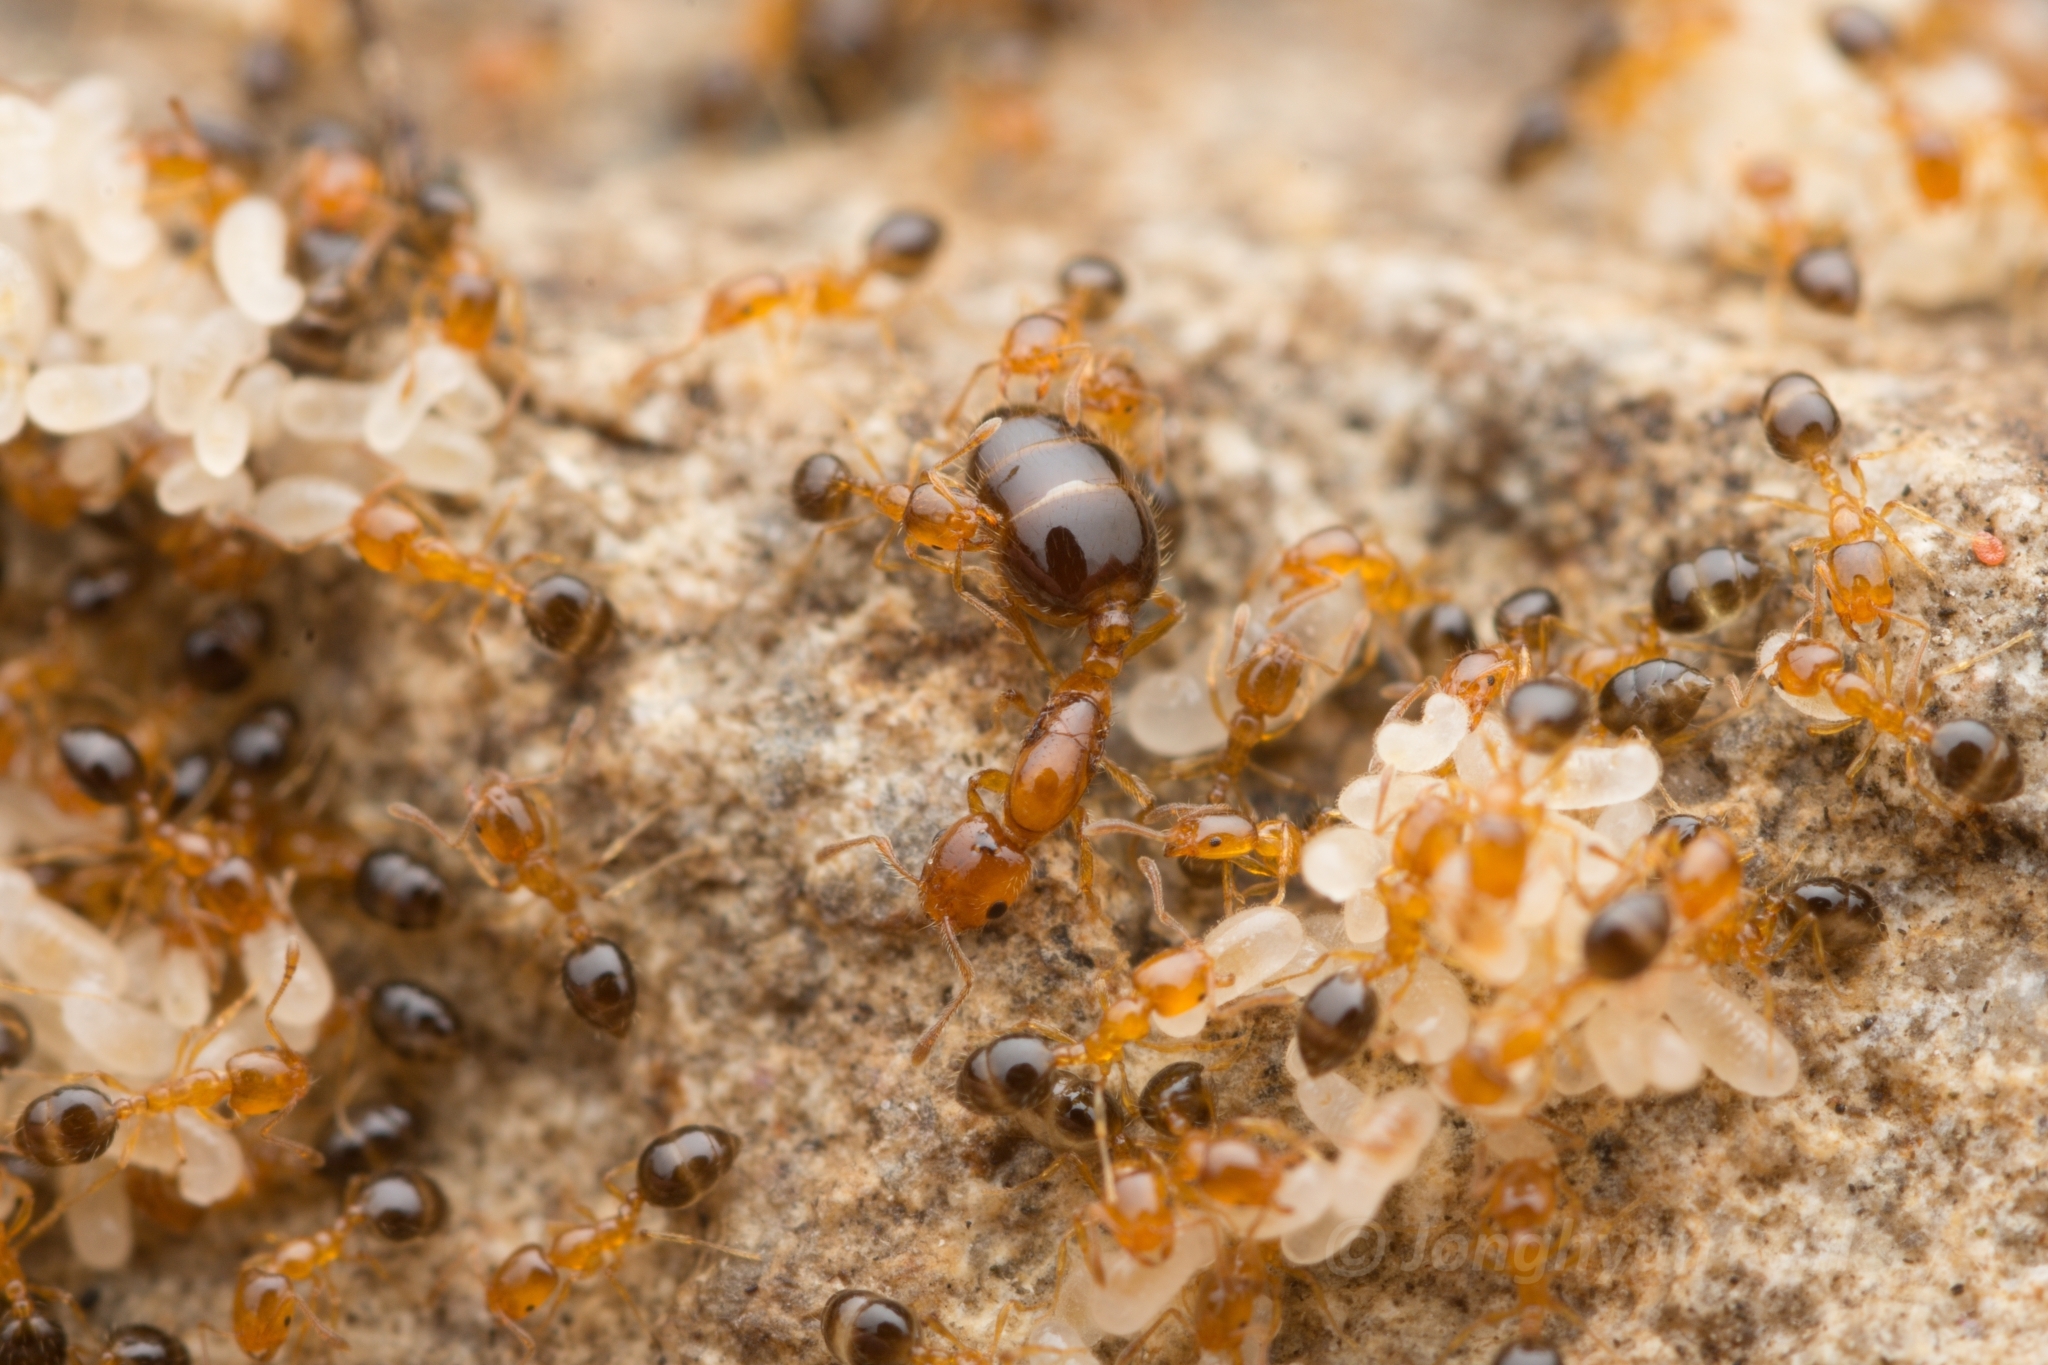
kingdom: Animalia
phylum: Arthropoda
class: Insecta
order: Hymenoptera
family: Formicidae
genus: Monomorium
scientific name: Monomorium intrudens
